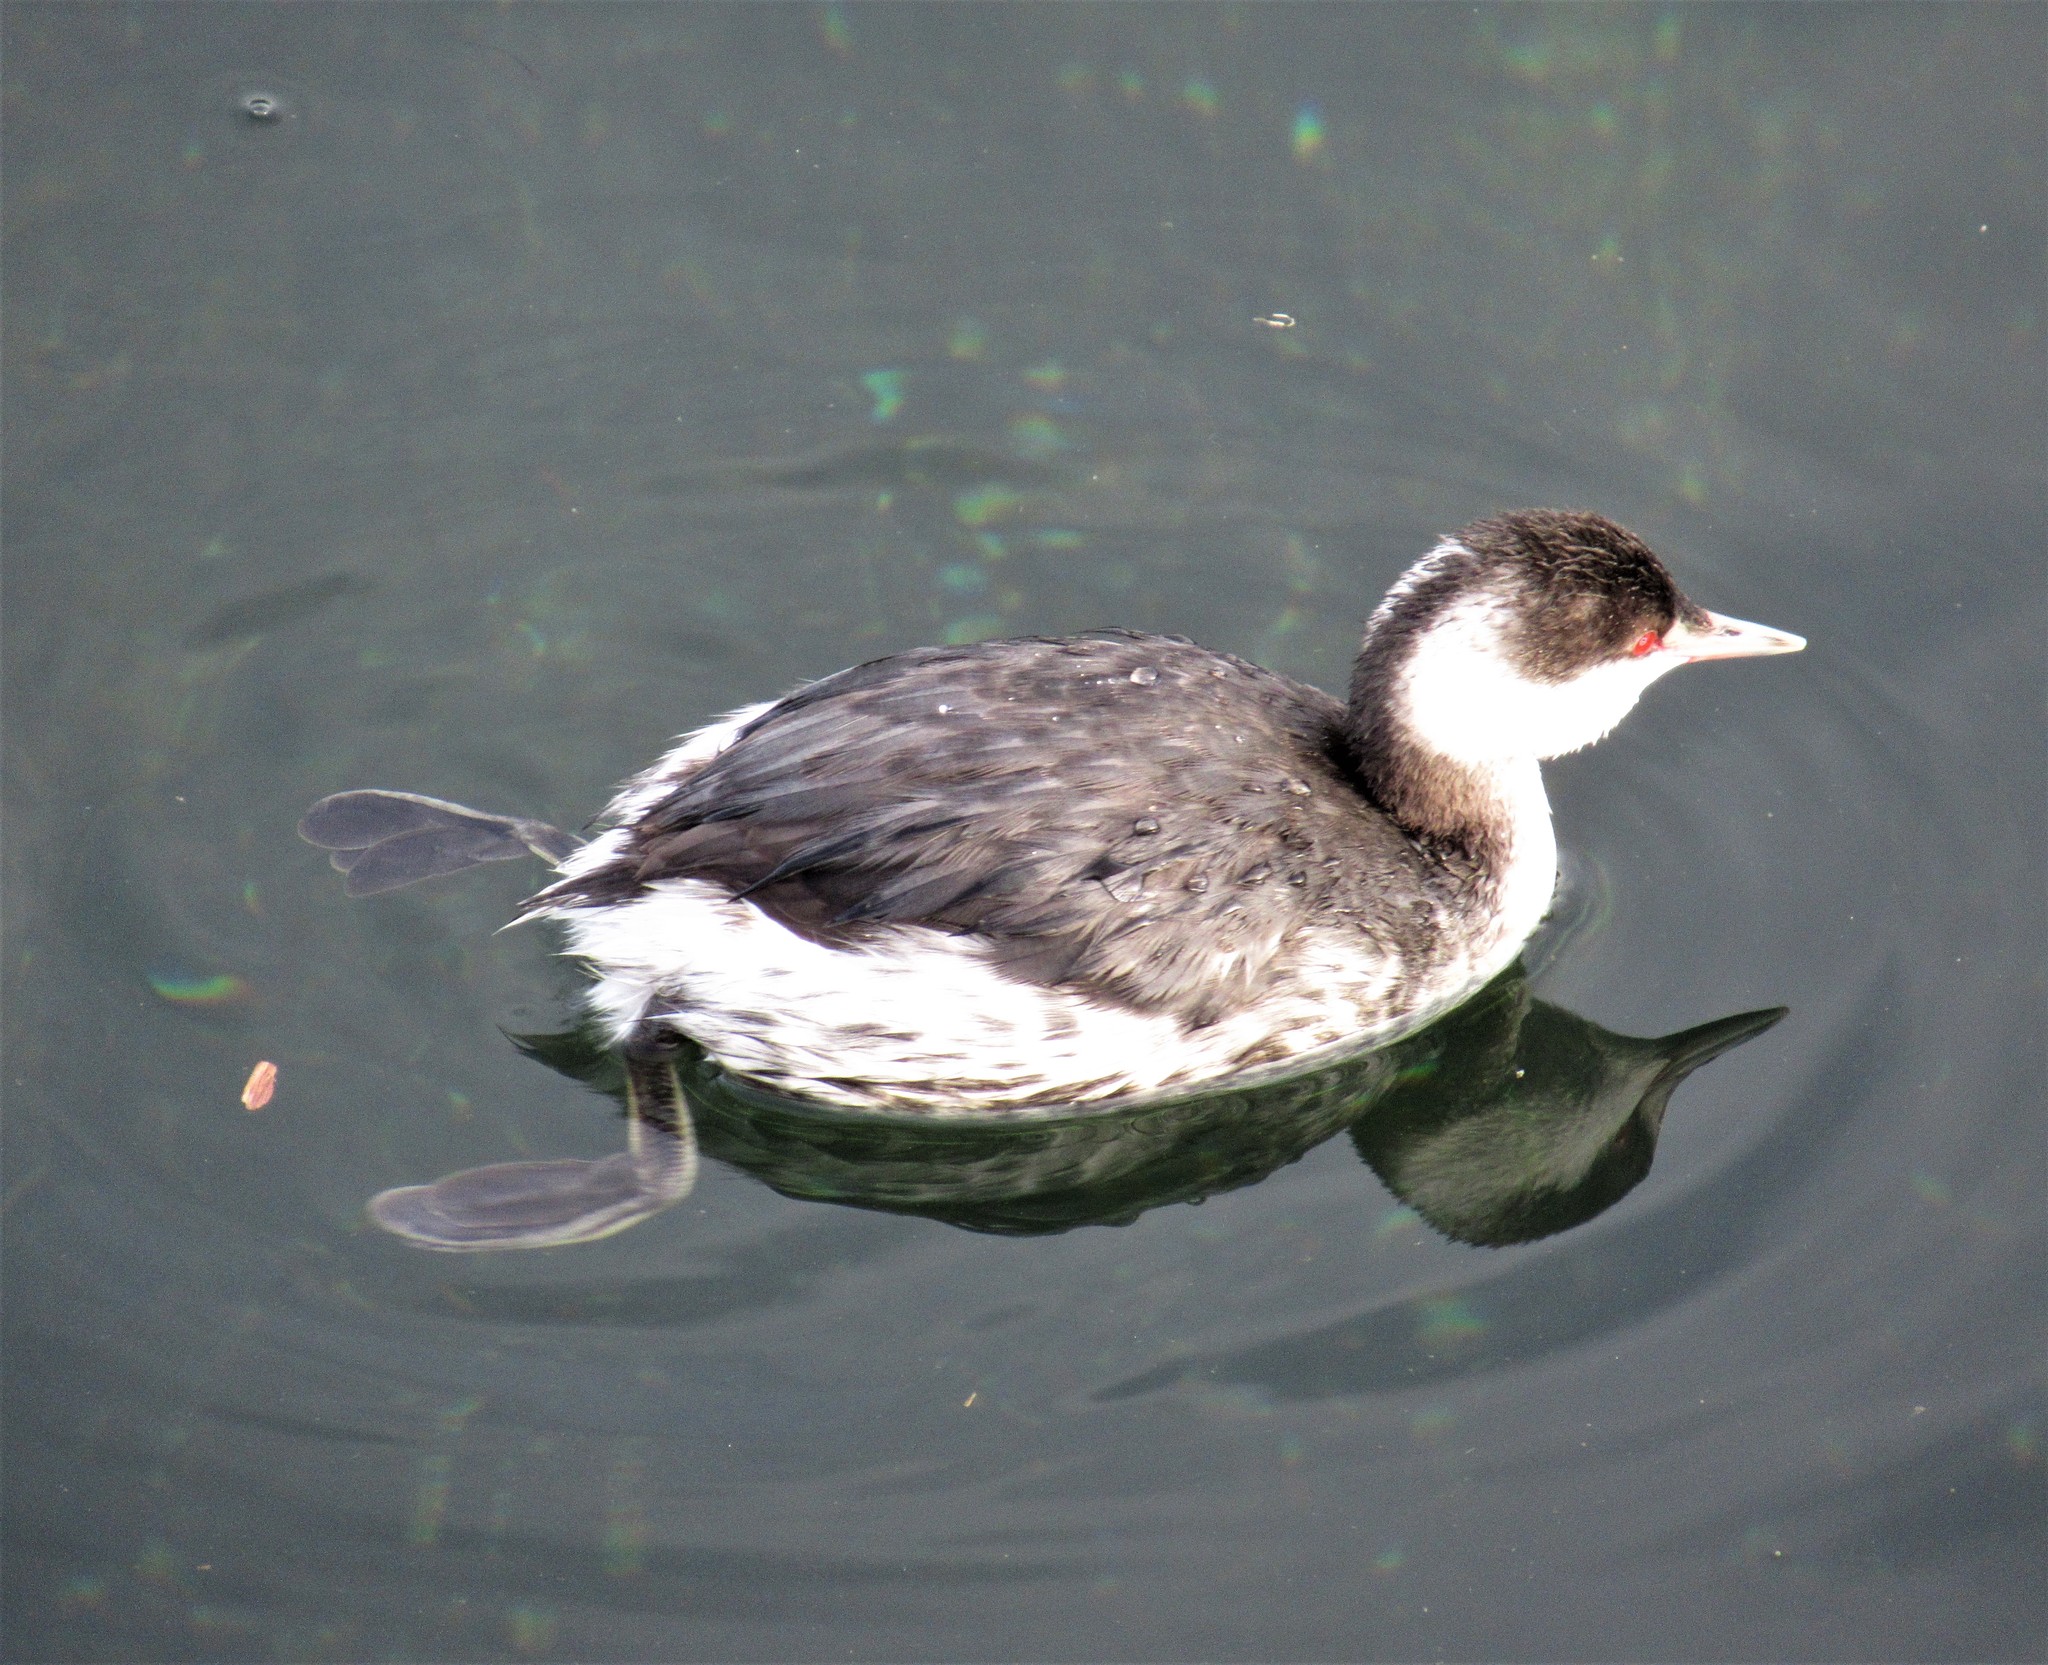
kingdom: Animalia
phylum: Chordata
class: Aves
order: Podicipediformes
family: Podicipedidae
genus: Podiceps
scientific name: Podiceps auritus
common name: Horned grebe
